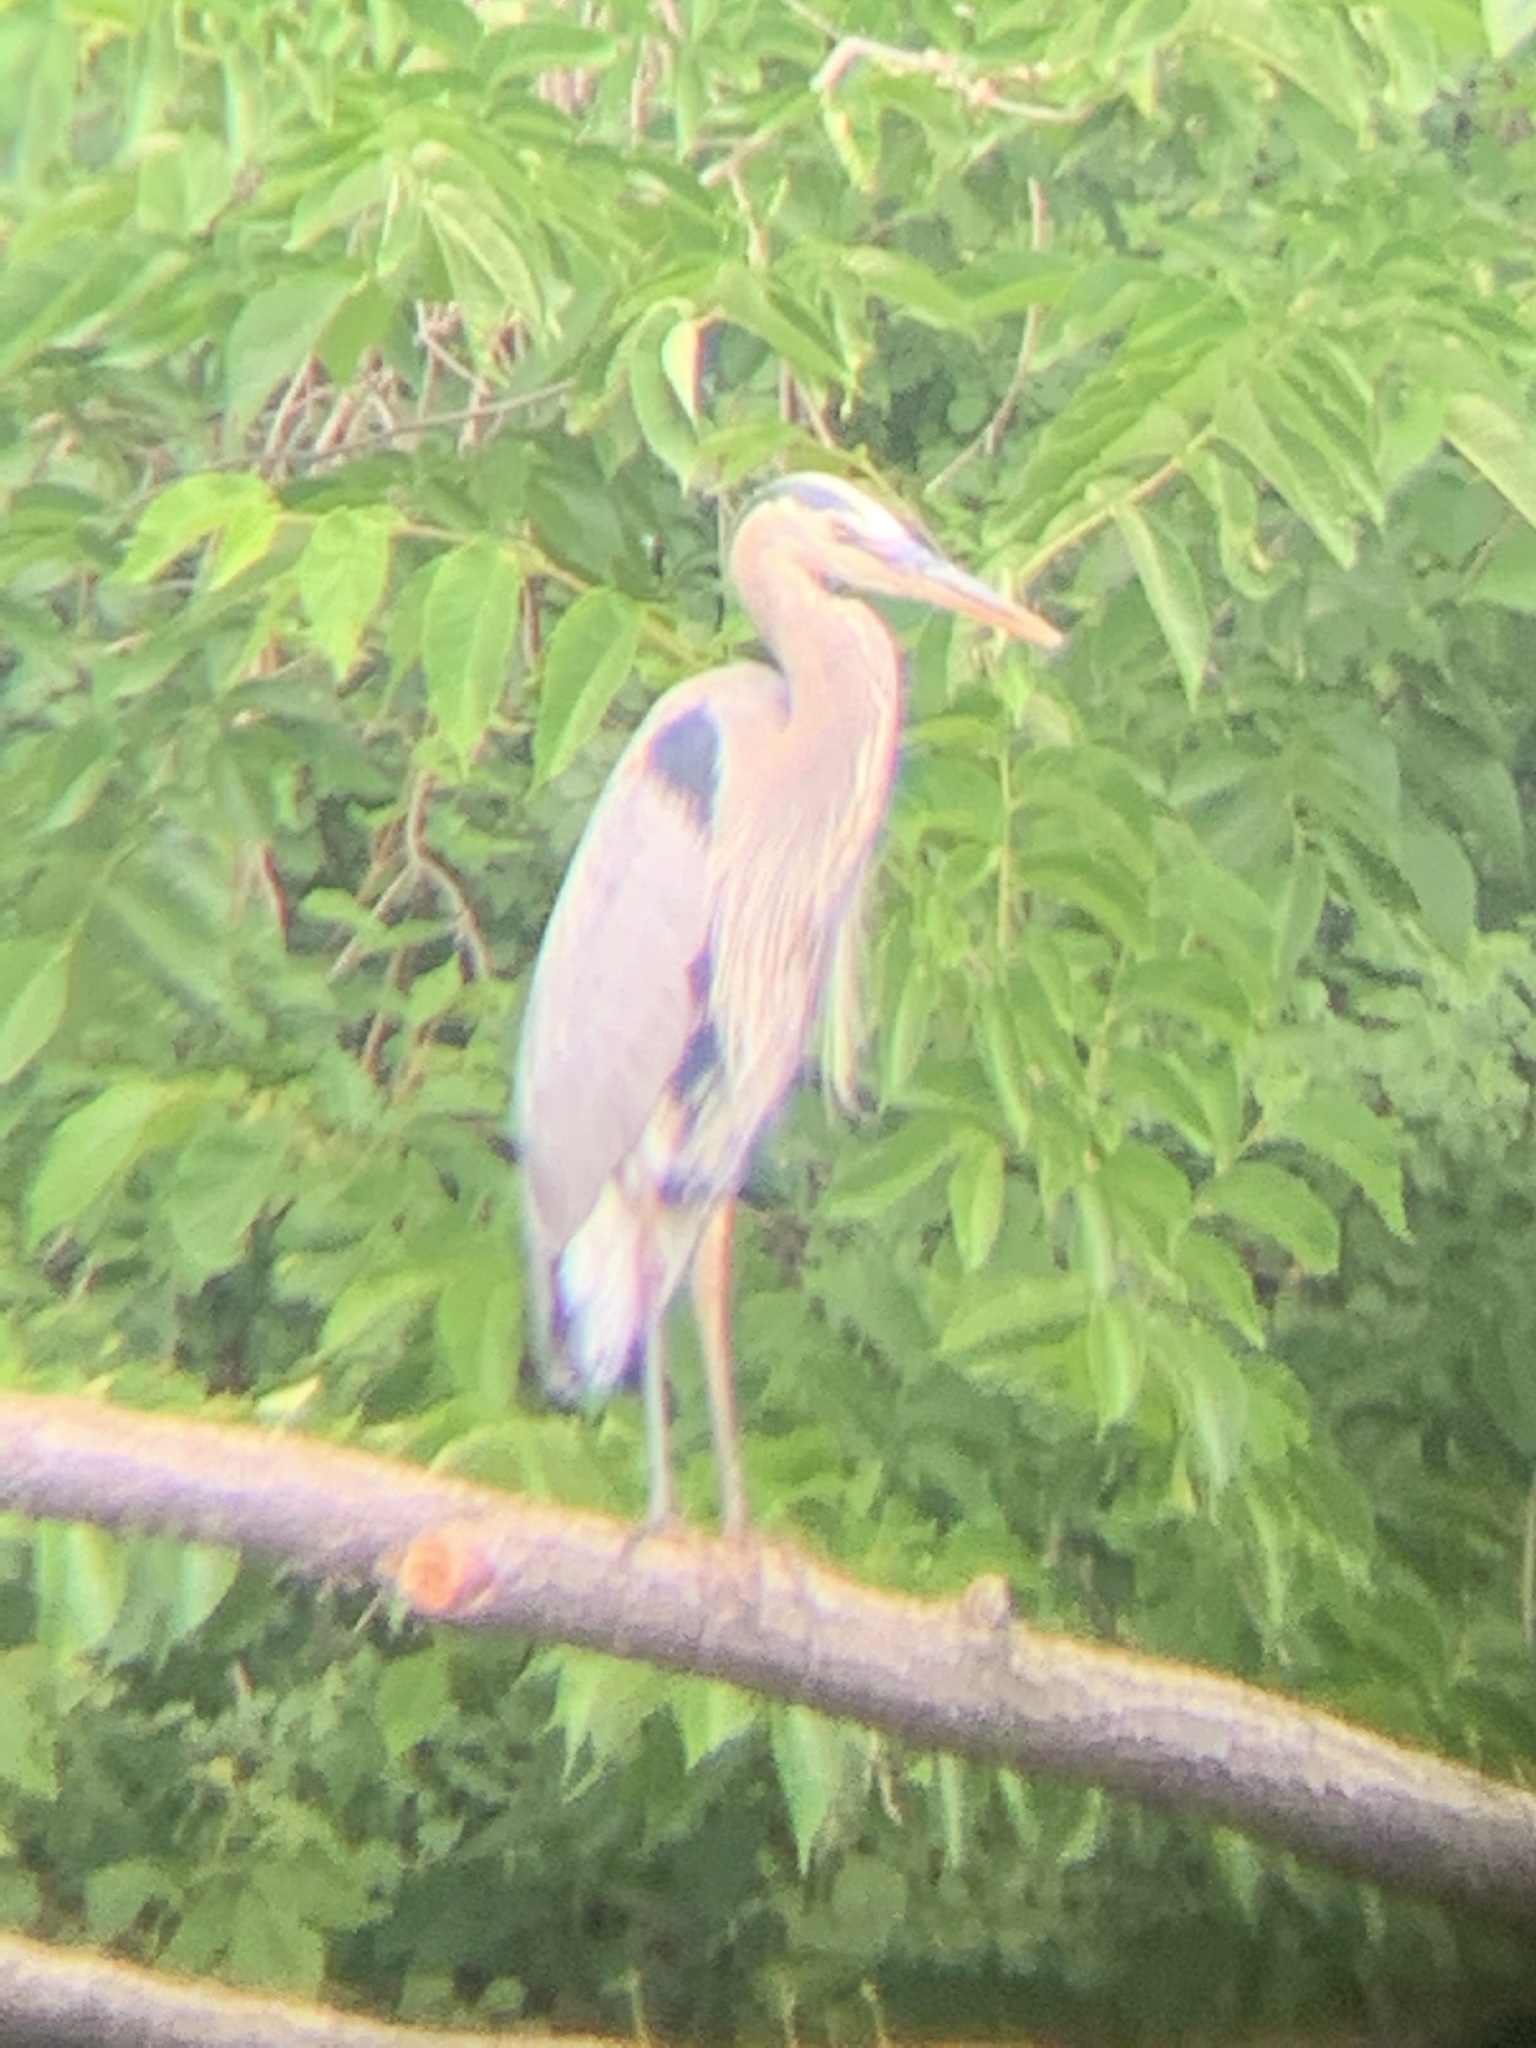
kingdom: Animalia
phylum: Chordata
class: Aves
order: Pelecaniformes
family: Ardeidae
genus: Ardea
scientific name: Ardea herodias
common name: Great blue heron
